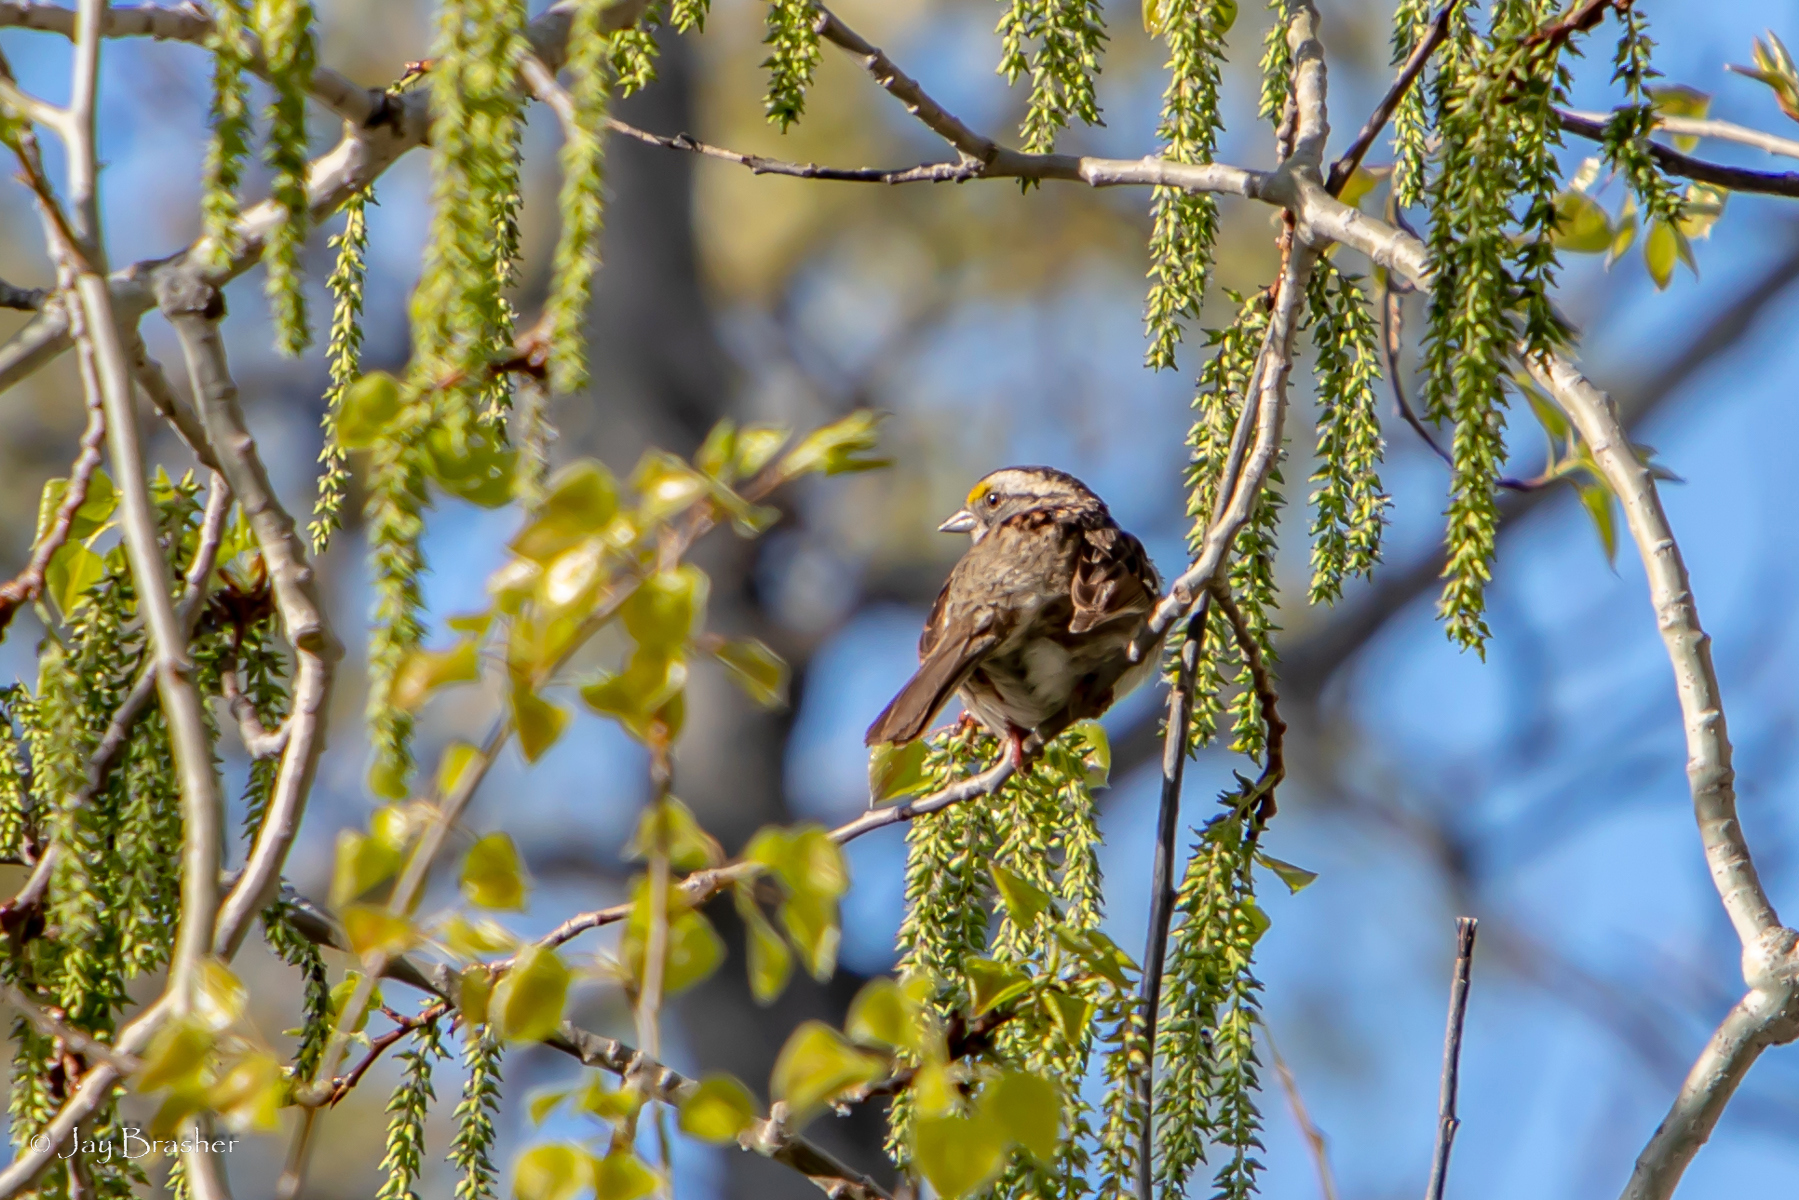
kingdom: Animalia
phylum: Chordata
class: Aves
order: Passeriformes
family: Passerellidae
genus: Zonotrichia
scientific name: Zonotrichia albicollis
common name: White-throated sparrow
